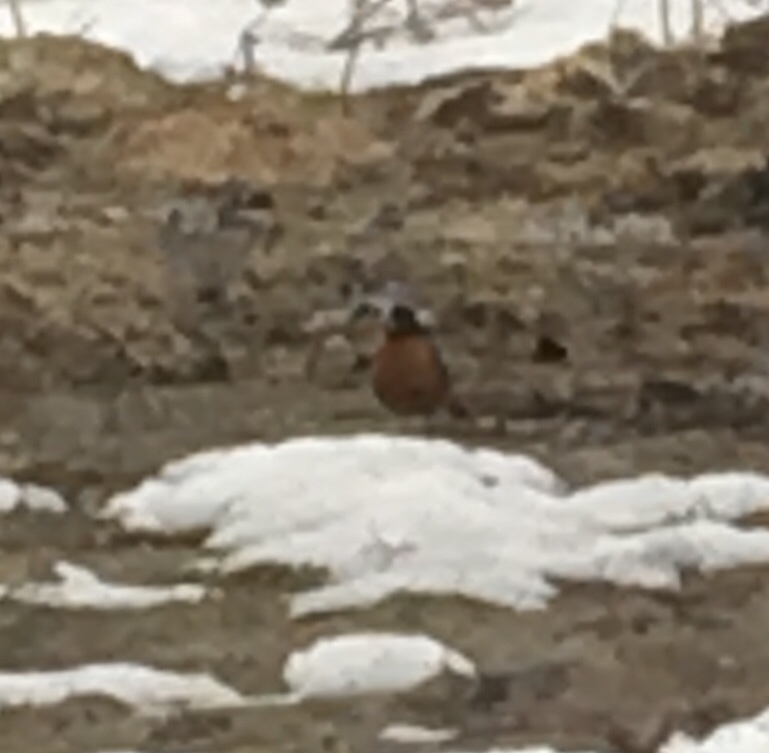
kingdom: Animalia
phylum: Chordata
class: Aves
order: Passeriformes
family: Turdidae
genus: Turdus
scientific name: Turdus migratorius
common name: American robin
